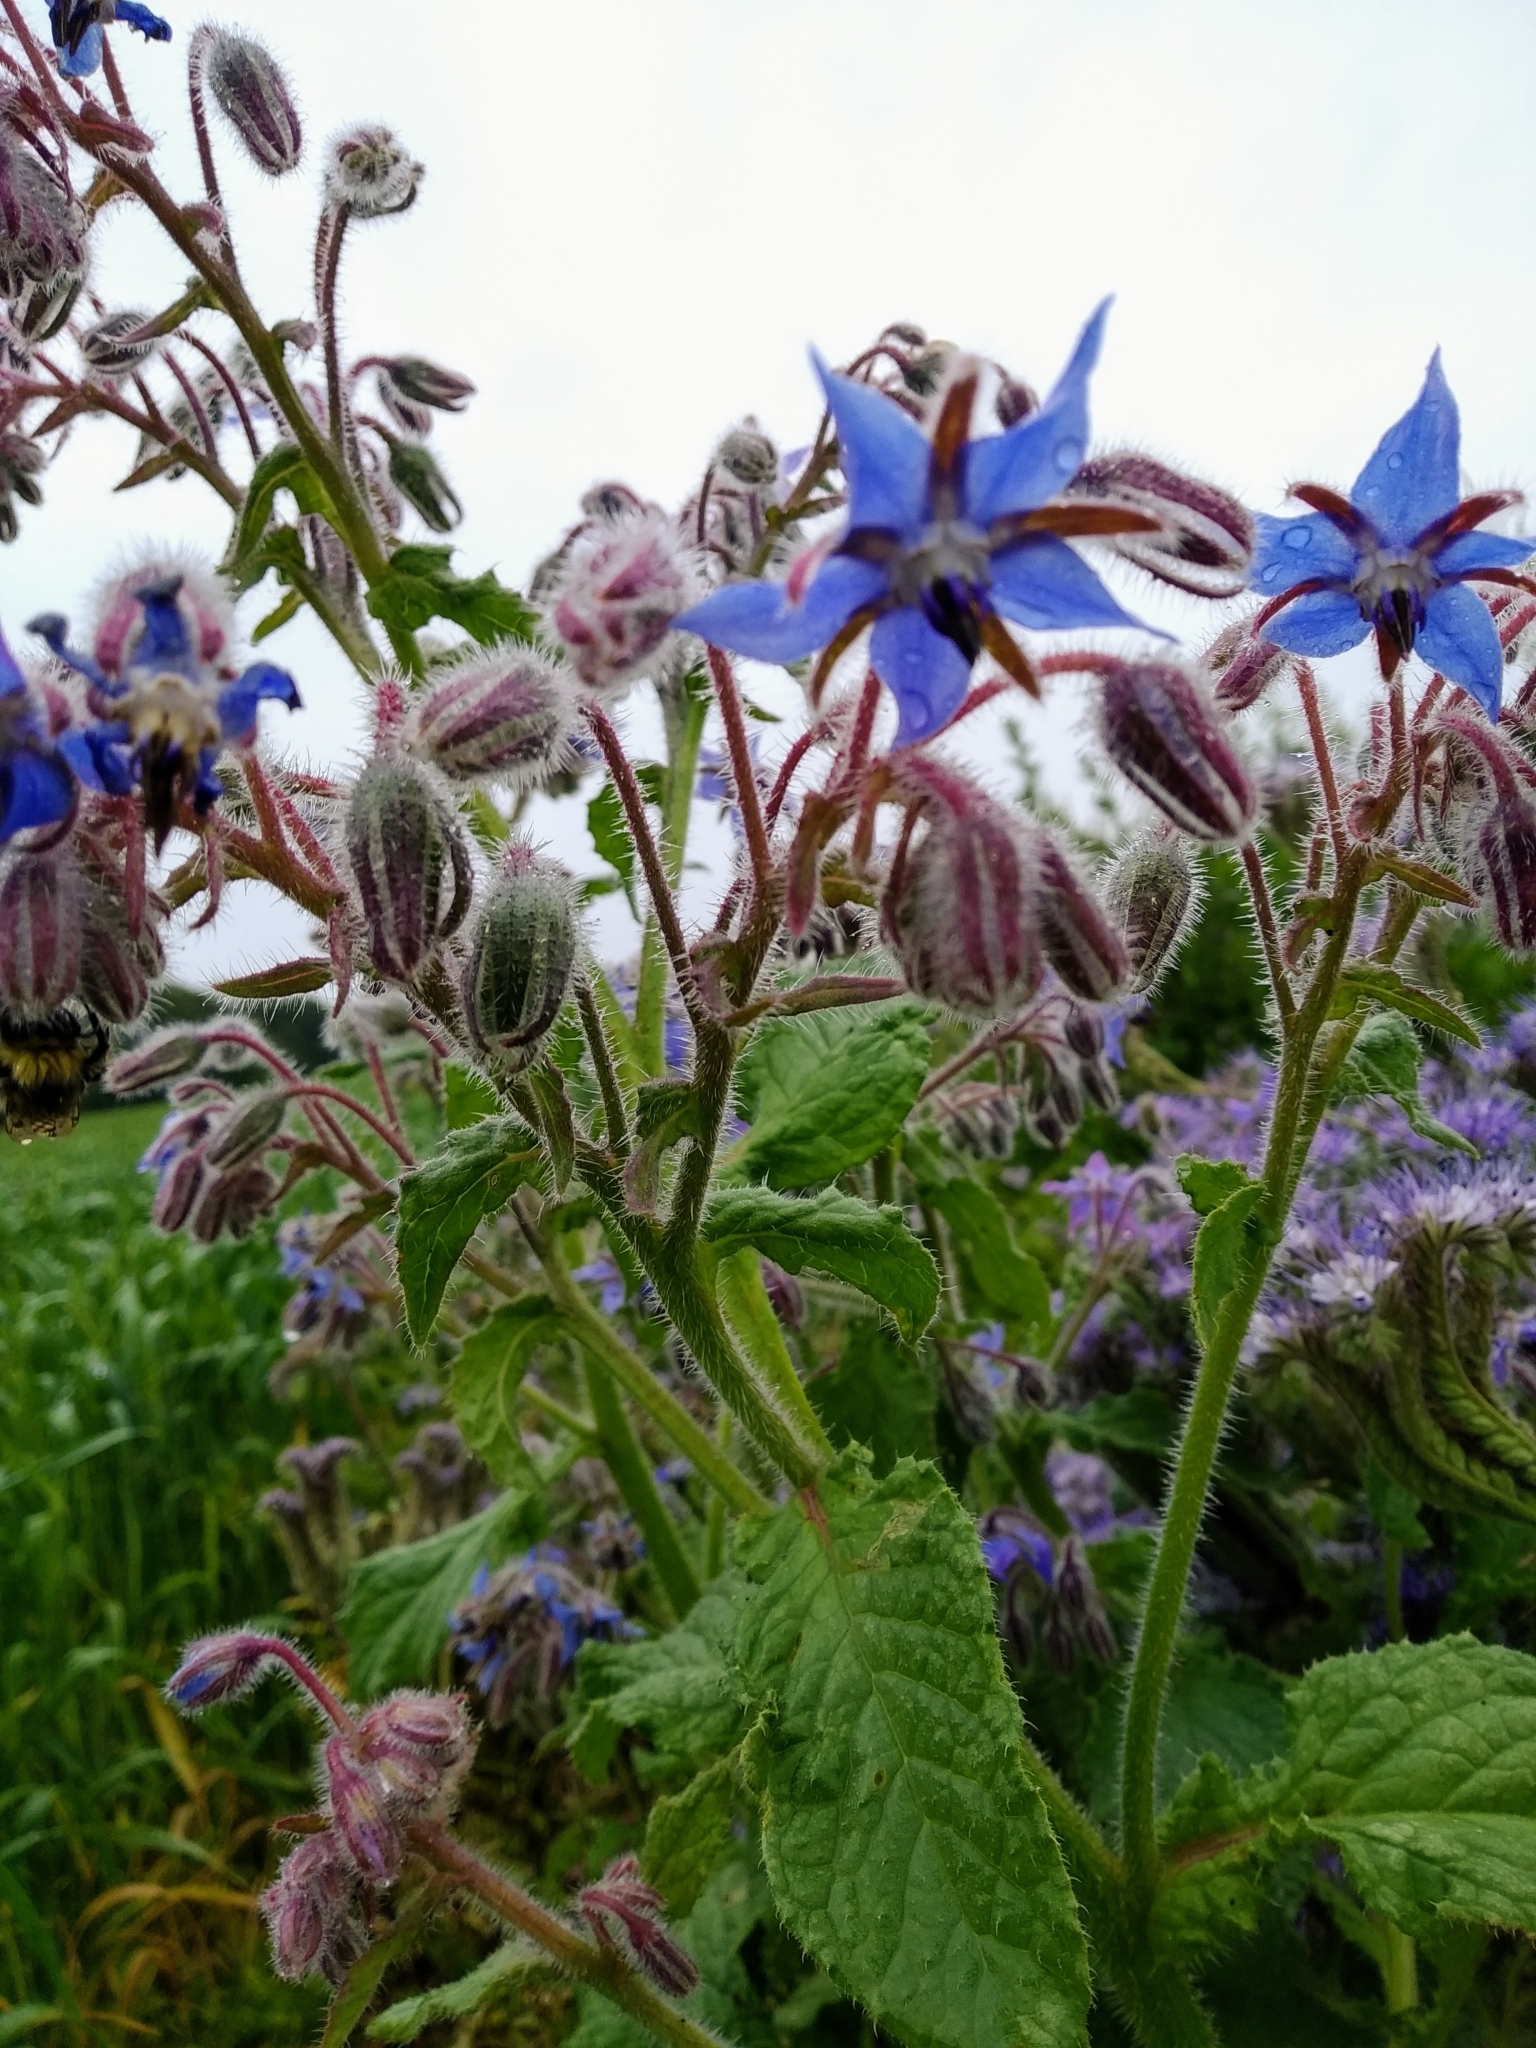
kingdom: Plantae
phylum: Tracheophyta
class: Magnoliopsida
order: Boraginales
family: Boraginaceae
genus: Borago
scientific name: Borago officinalis
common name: Borage
